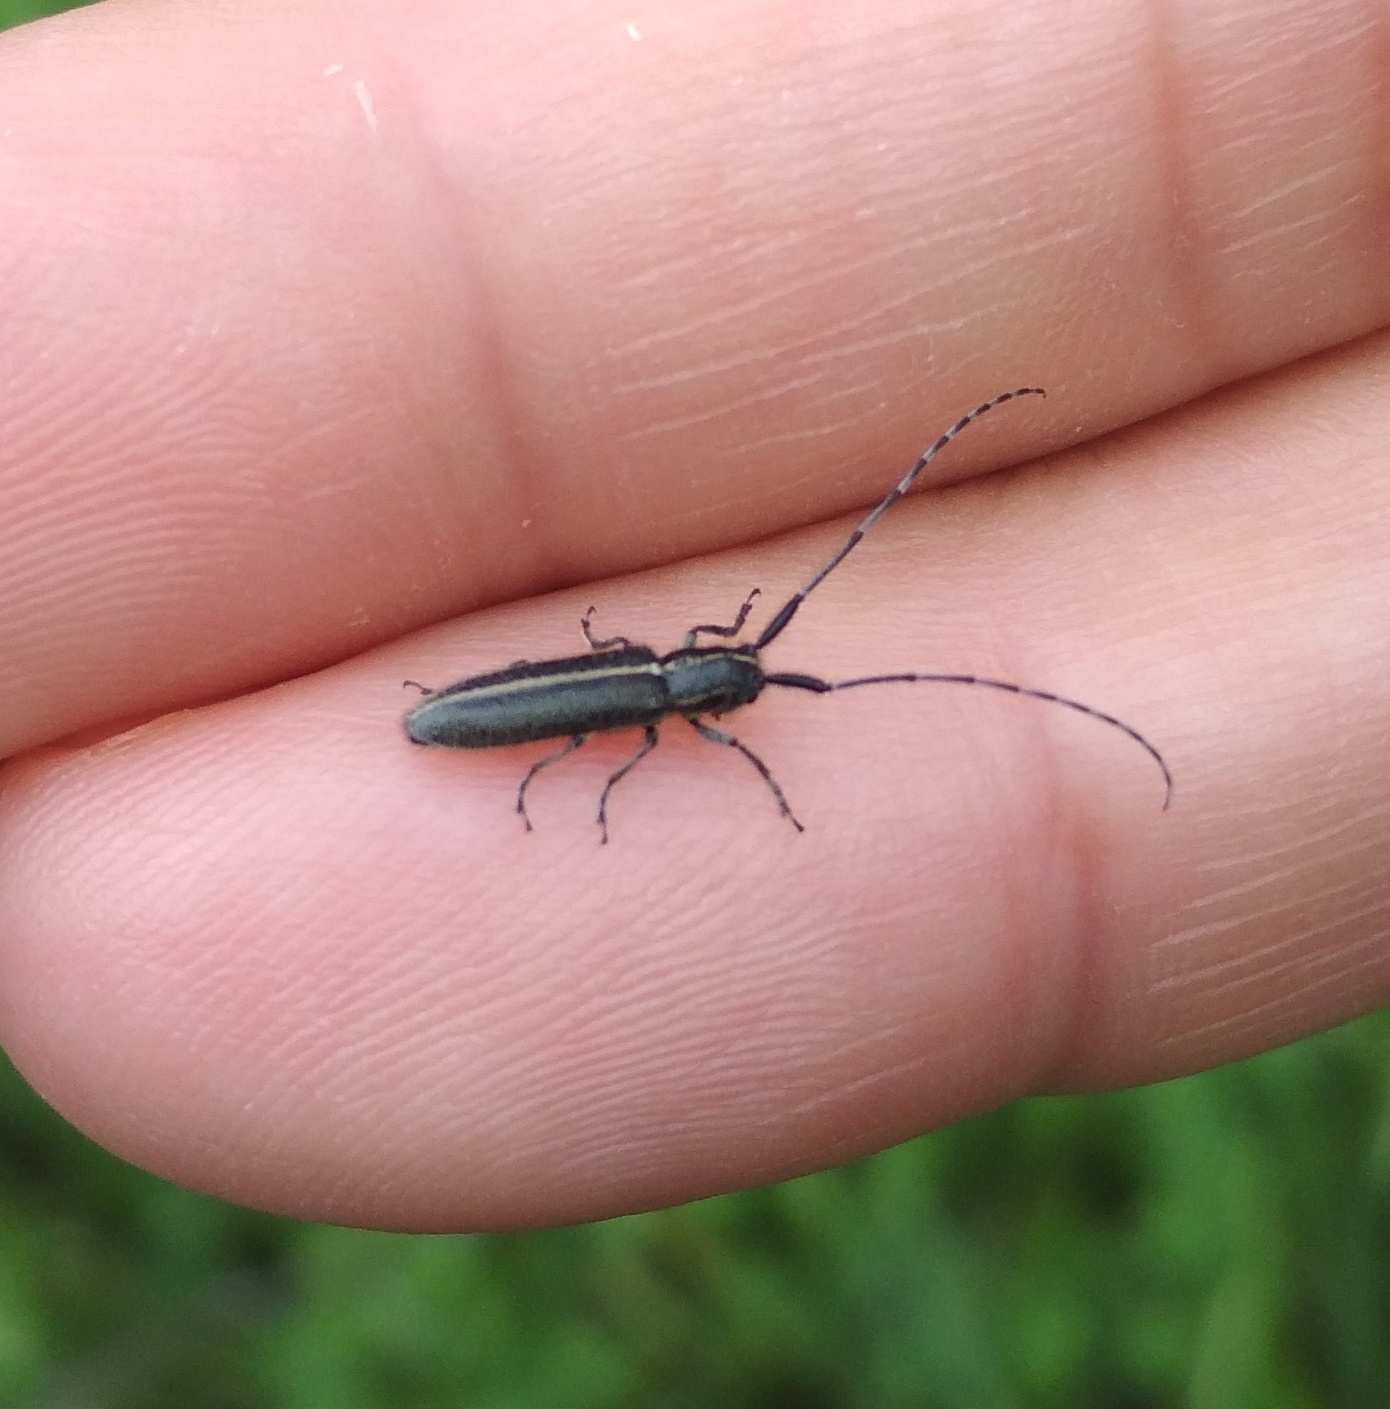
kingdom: Animalia
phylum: Arthropoda
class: Insecta
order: Coleoptera
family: Cerambycidae
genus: Agapanthia
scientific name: Agapanthia cardui
